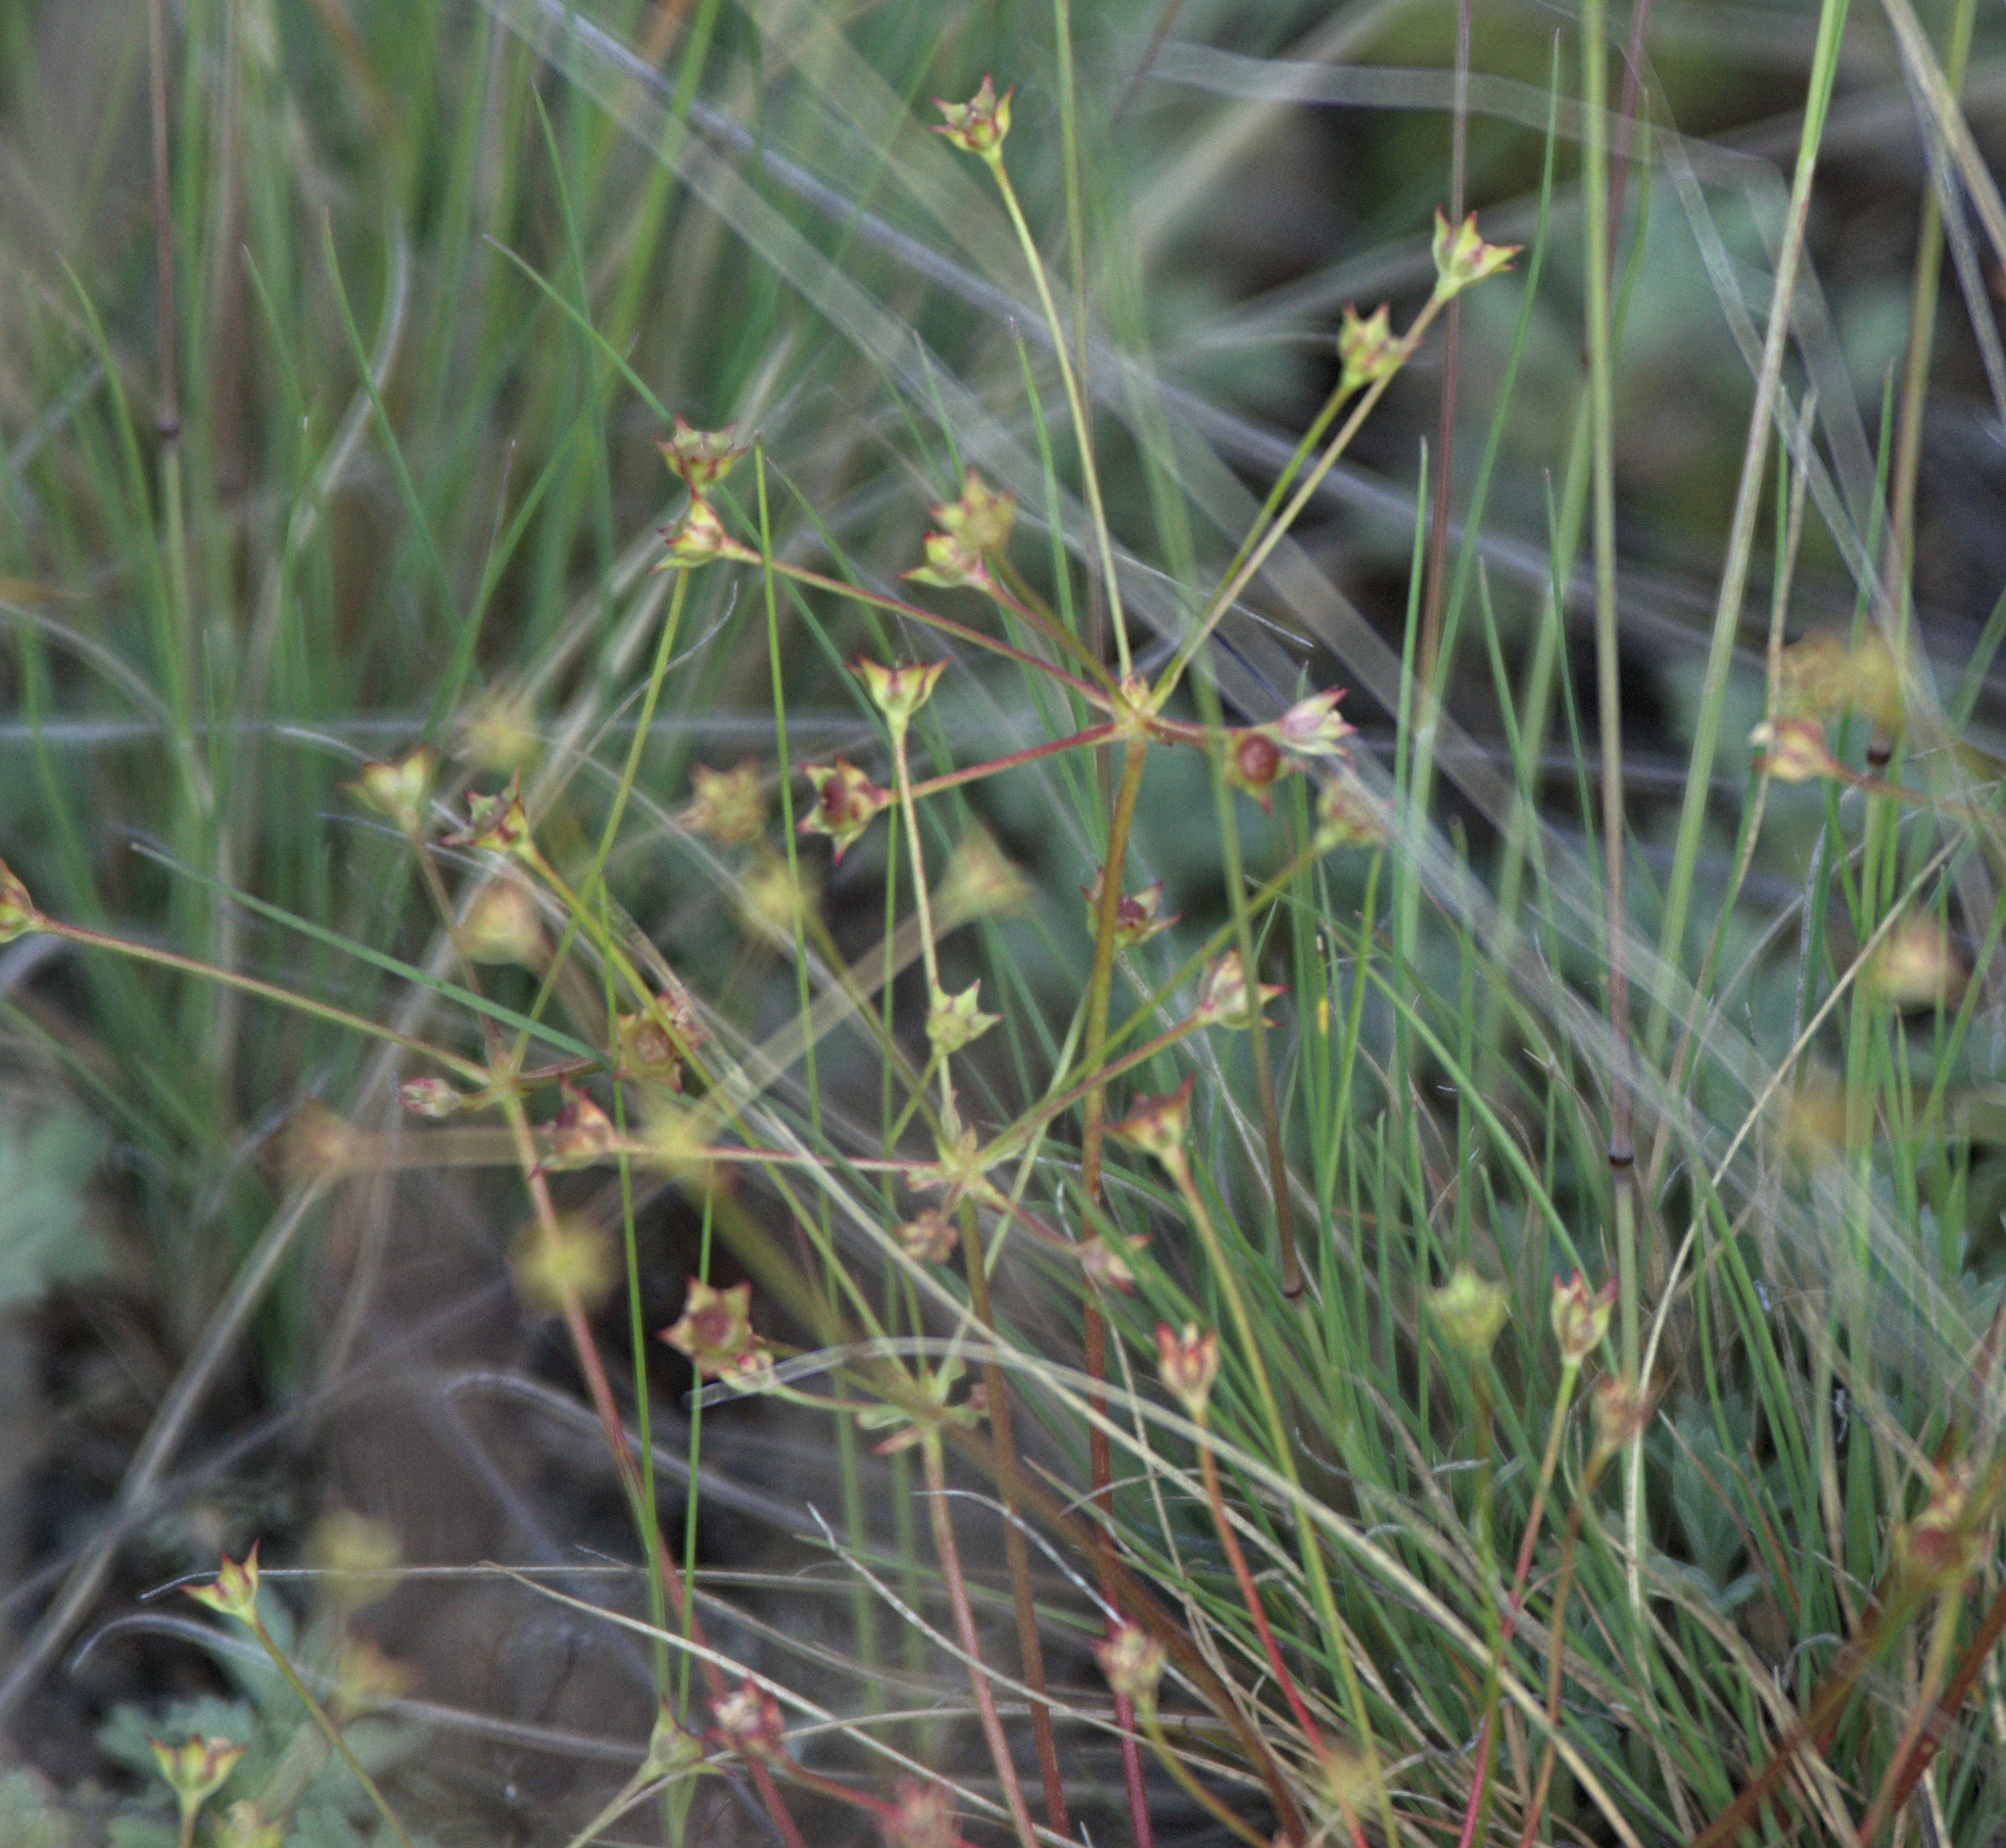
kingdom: Plantae
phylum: Tracheophyta
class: Magnoliopsida
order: Ericales
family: Primulaceae
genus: Androsace
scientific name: Androsace elongata
